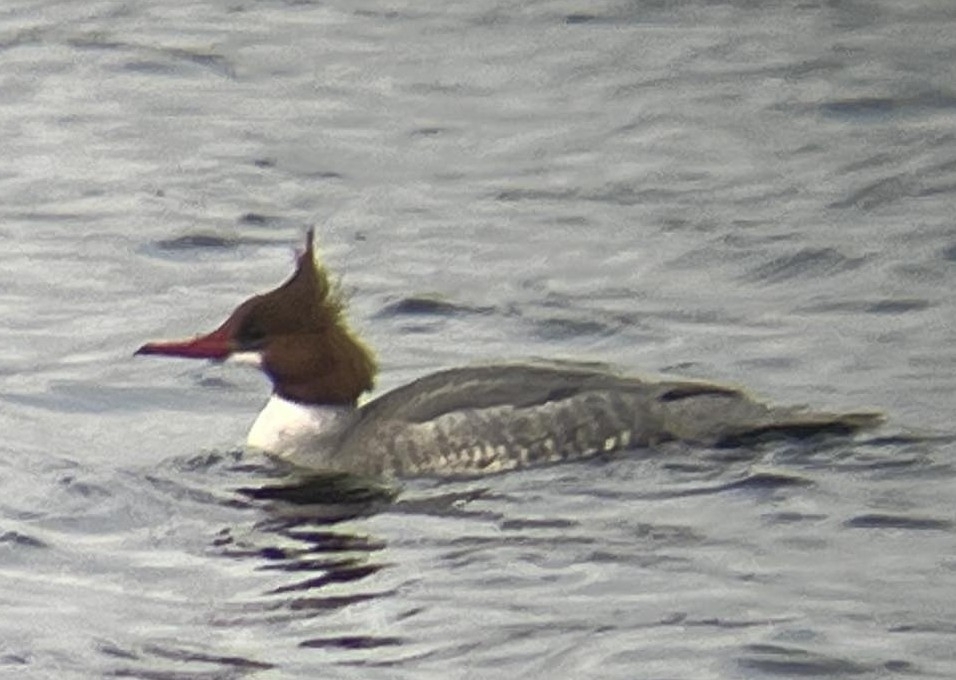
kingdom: Animalia
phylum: Chordata
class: Aves
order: Anseriformes
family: Anatidae
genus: Mergus
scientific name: Mergus merganser
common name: Common merganser
